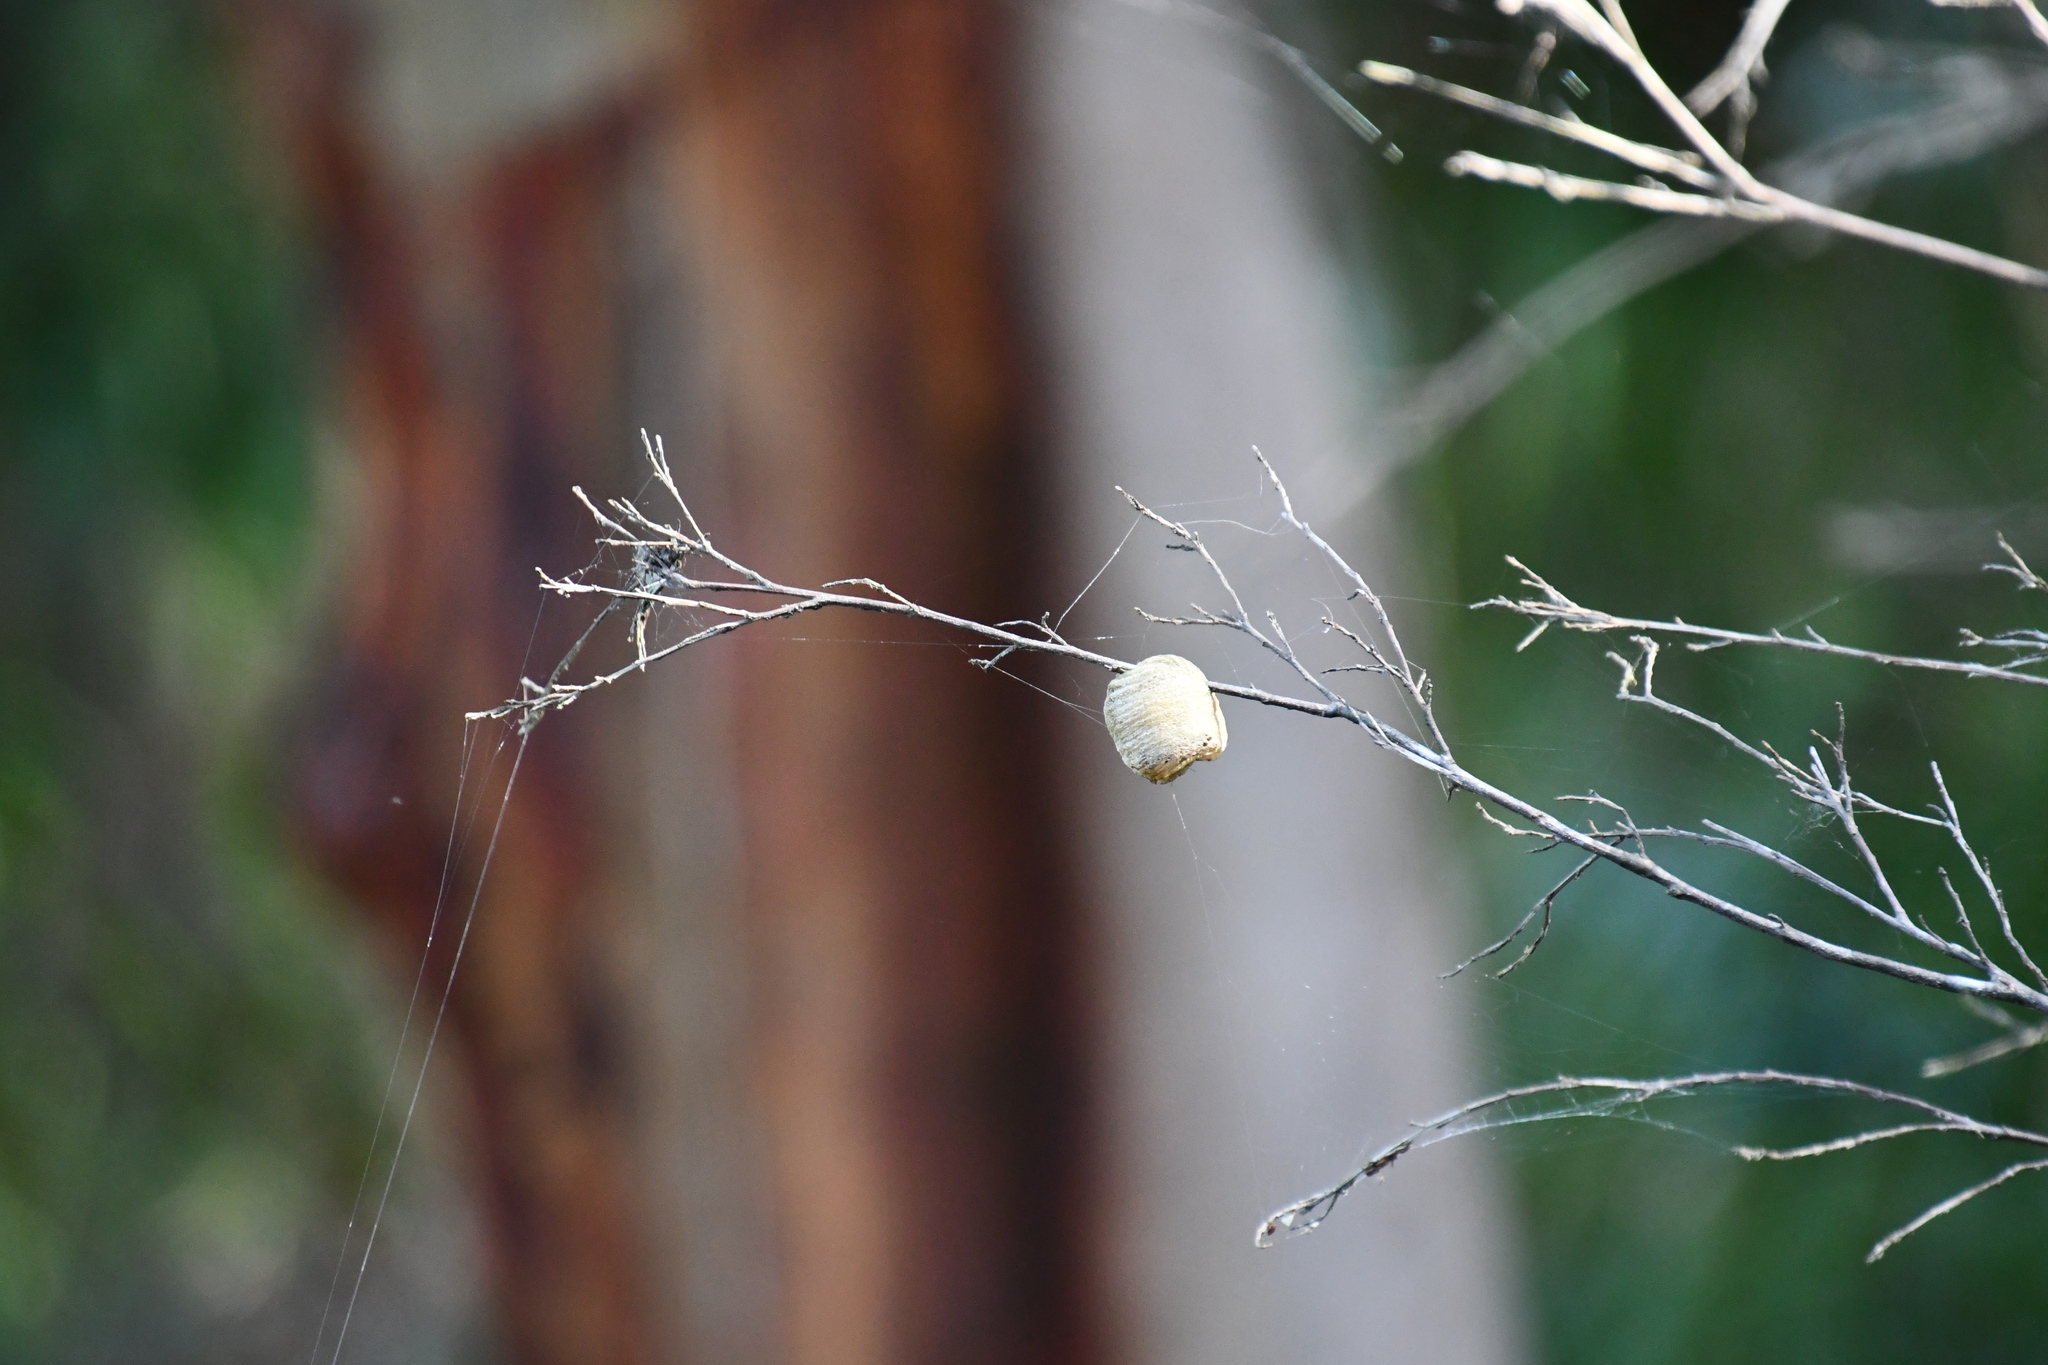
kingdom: Animalia
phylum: Arthropoda
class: Insecta
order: Mantodea
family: Mantidae
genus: Archimantis
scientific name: Archimantis latistyla
